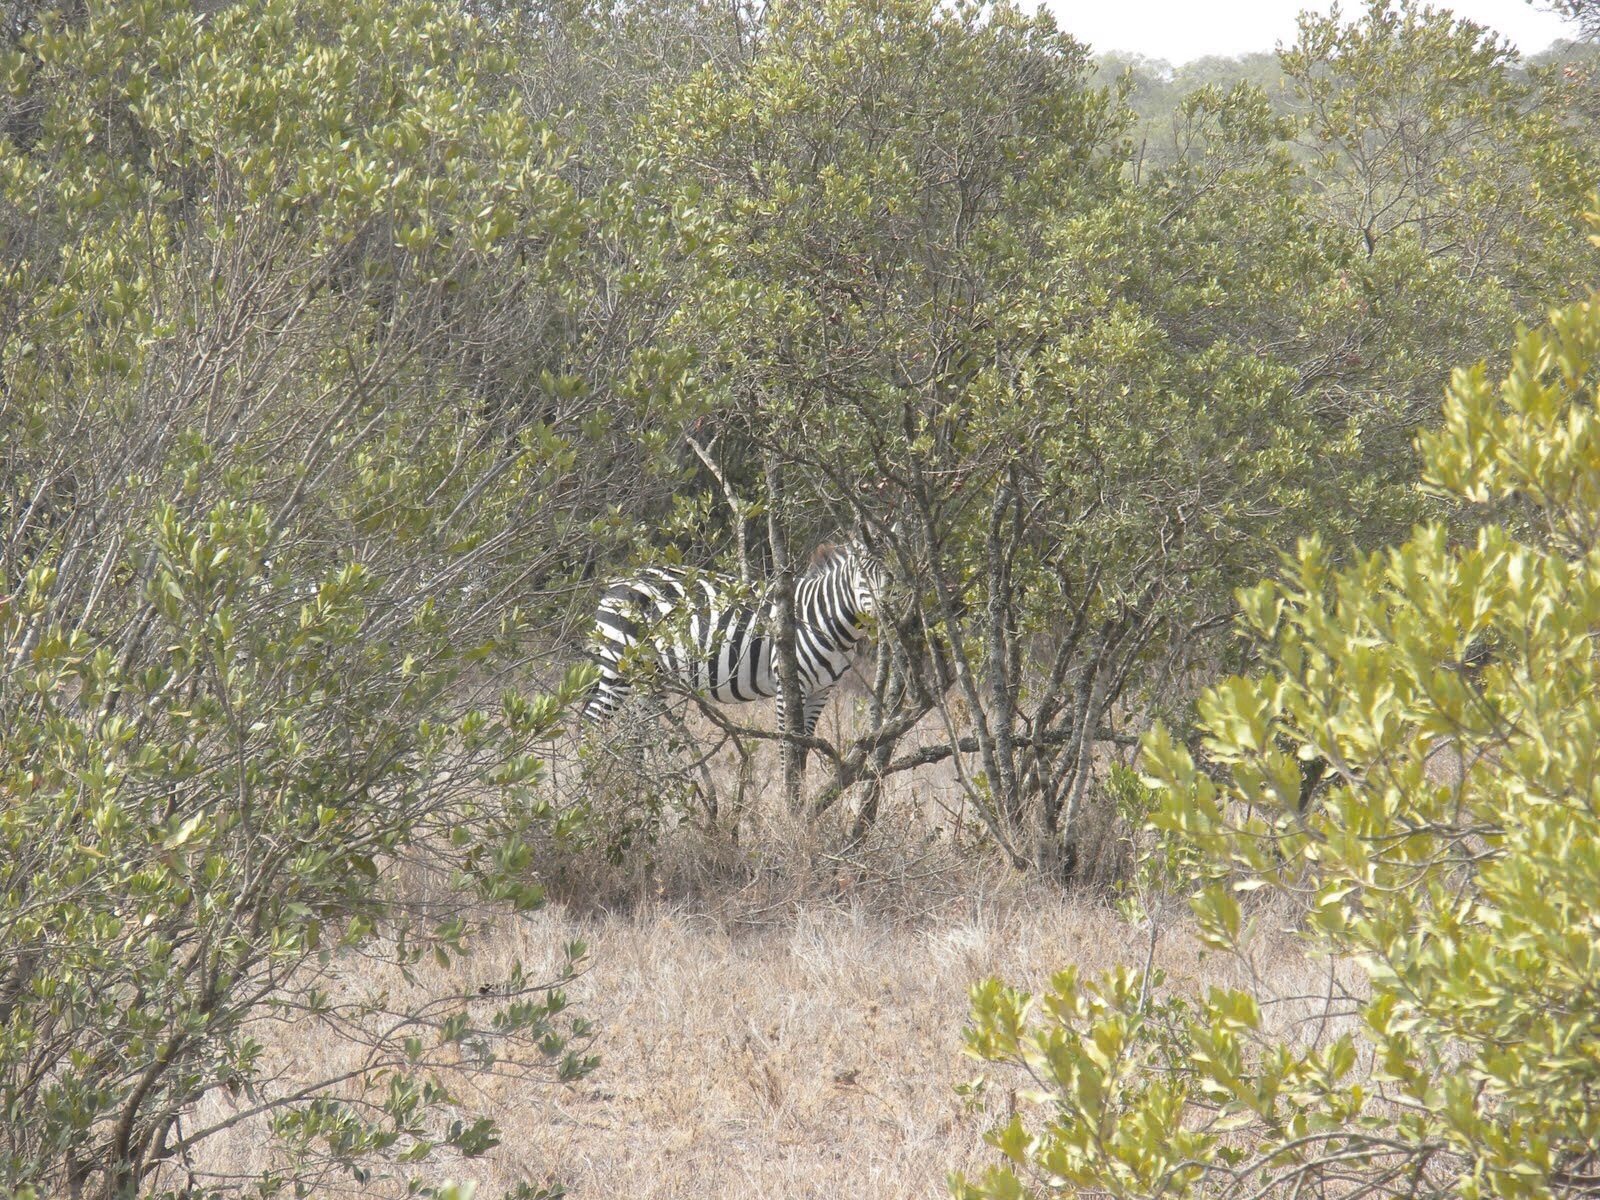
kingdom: Animalia
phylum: Chordata
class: Mammalia
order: Perissodactyla
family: Equidae
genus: Equus
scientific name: Equus quagga
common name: Plains zebra
